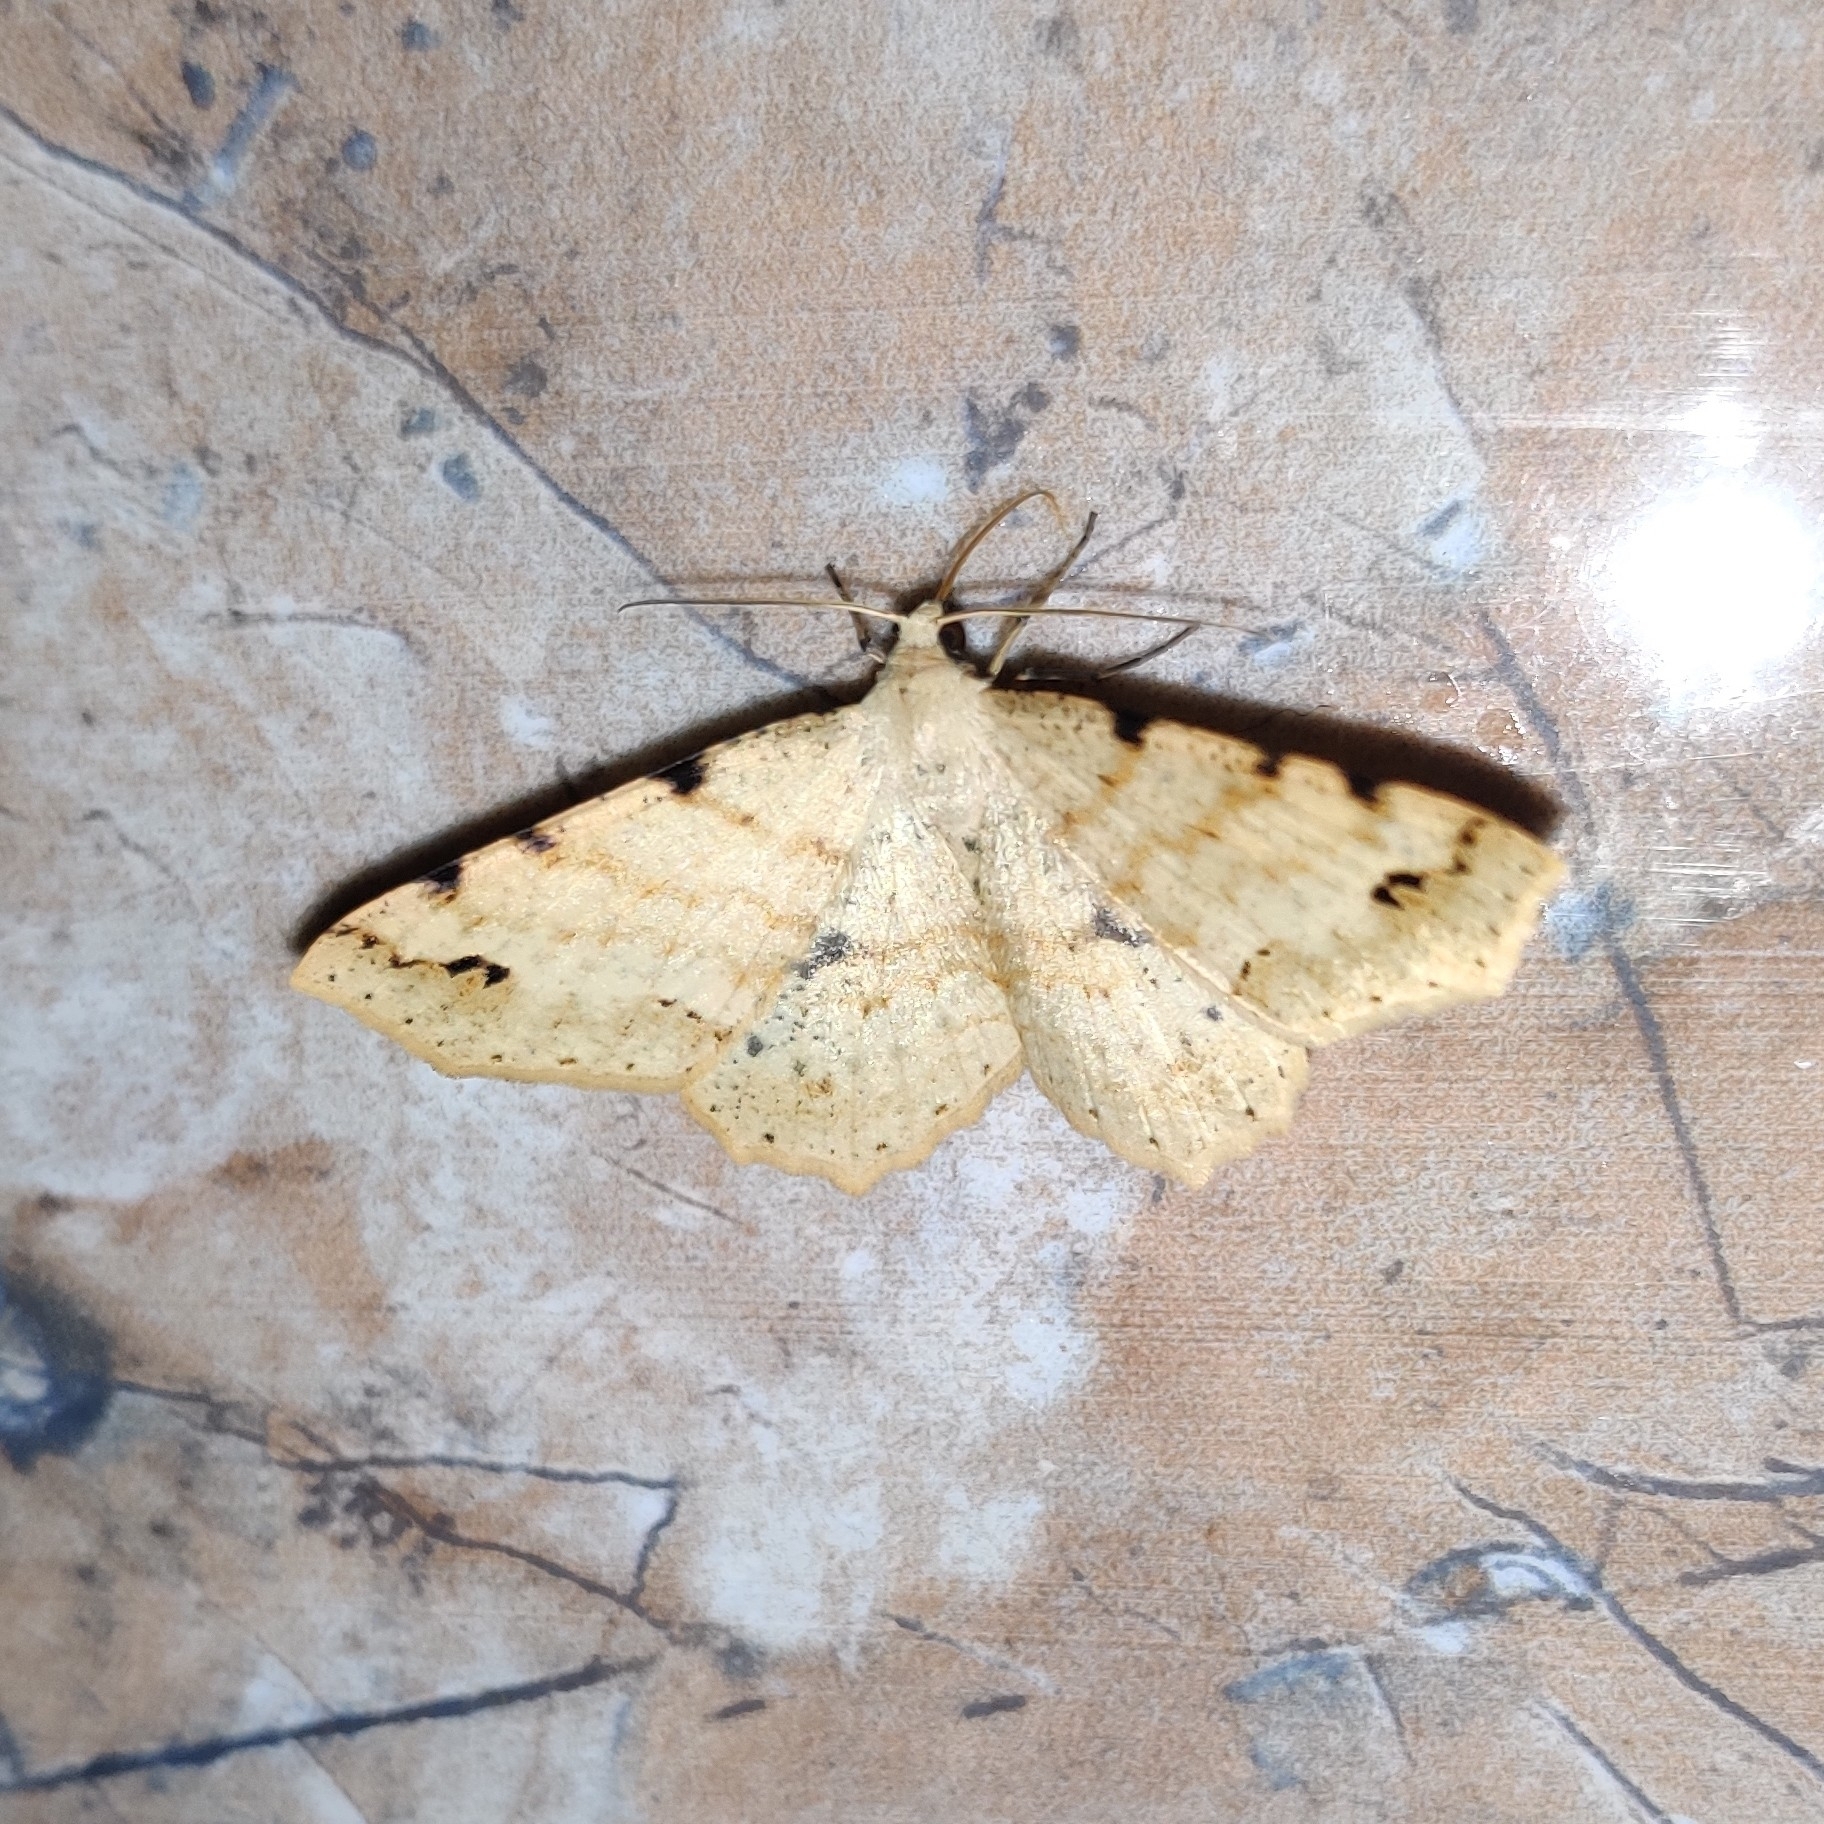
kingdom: Animalia
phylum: Arthropoda
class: Insecta
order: Lepidoptera
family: Geometridae
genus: Psyra
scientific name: Psyra debilis
